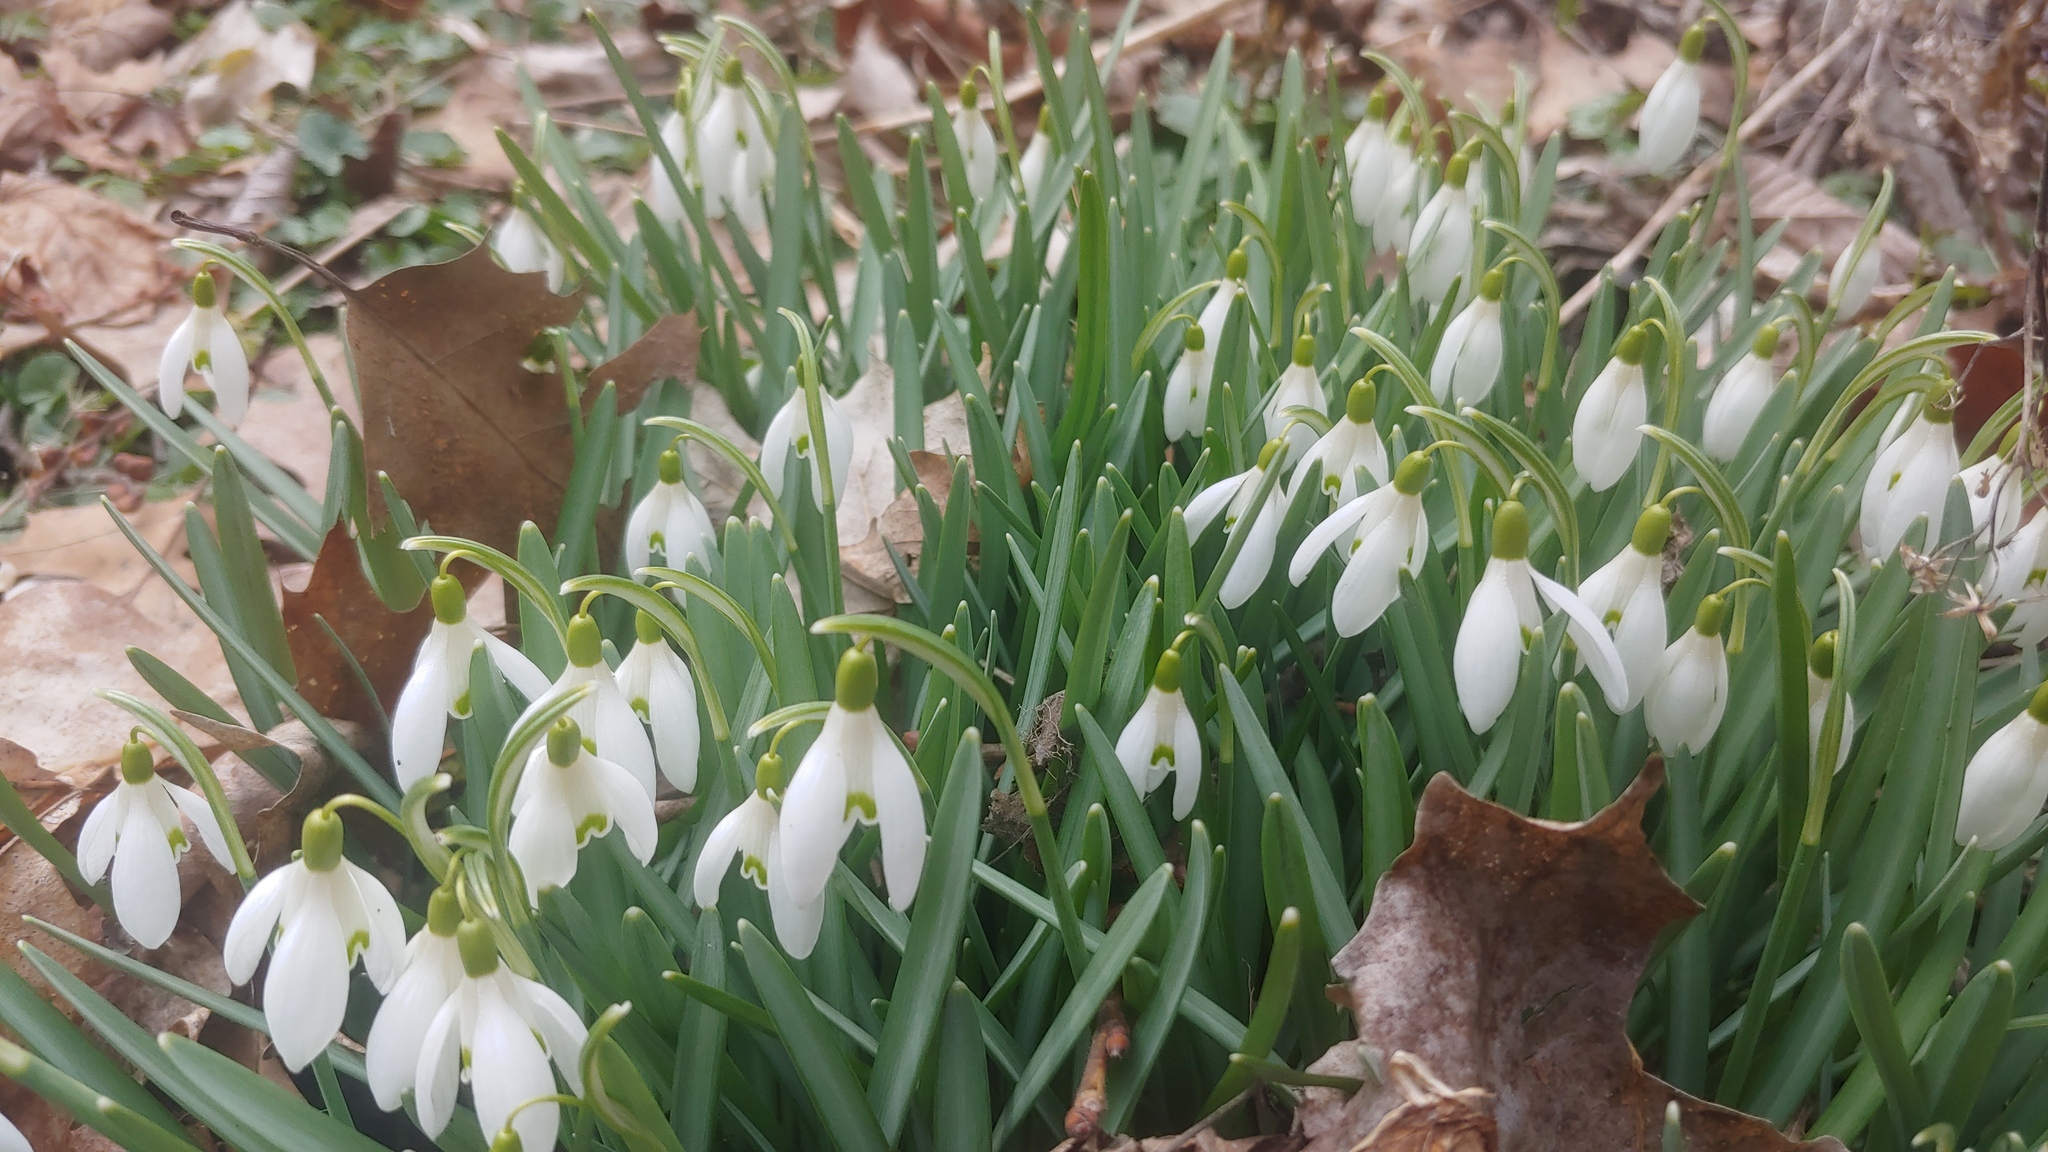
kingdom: Plantae
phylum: Tracheophyta
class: Liliopsida
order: Asparagales
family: Amaryllidaceae
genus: Galanthus
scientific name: Galanthus nivalis
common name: Snowdrop
